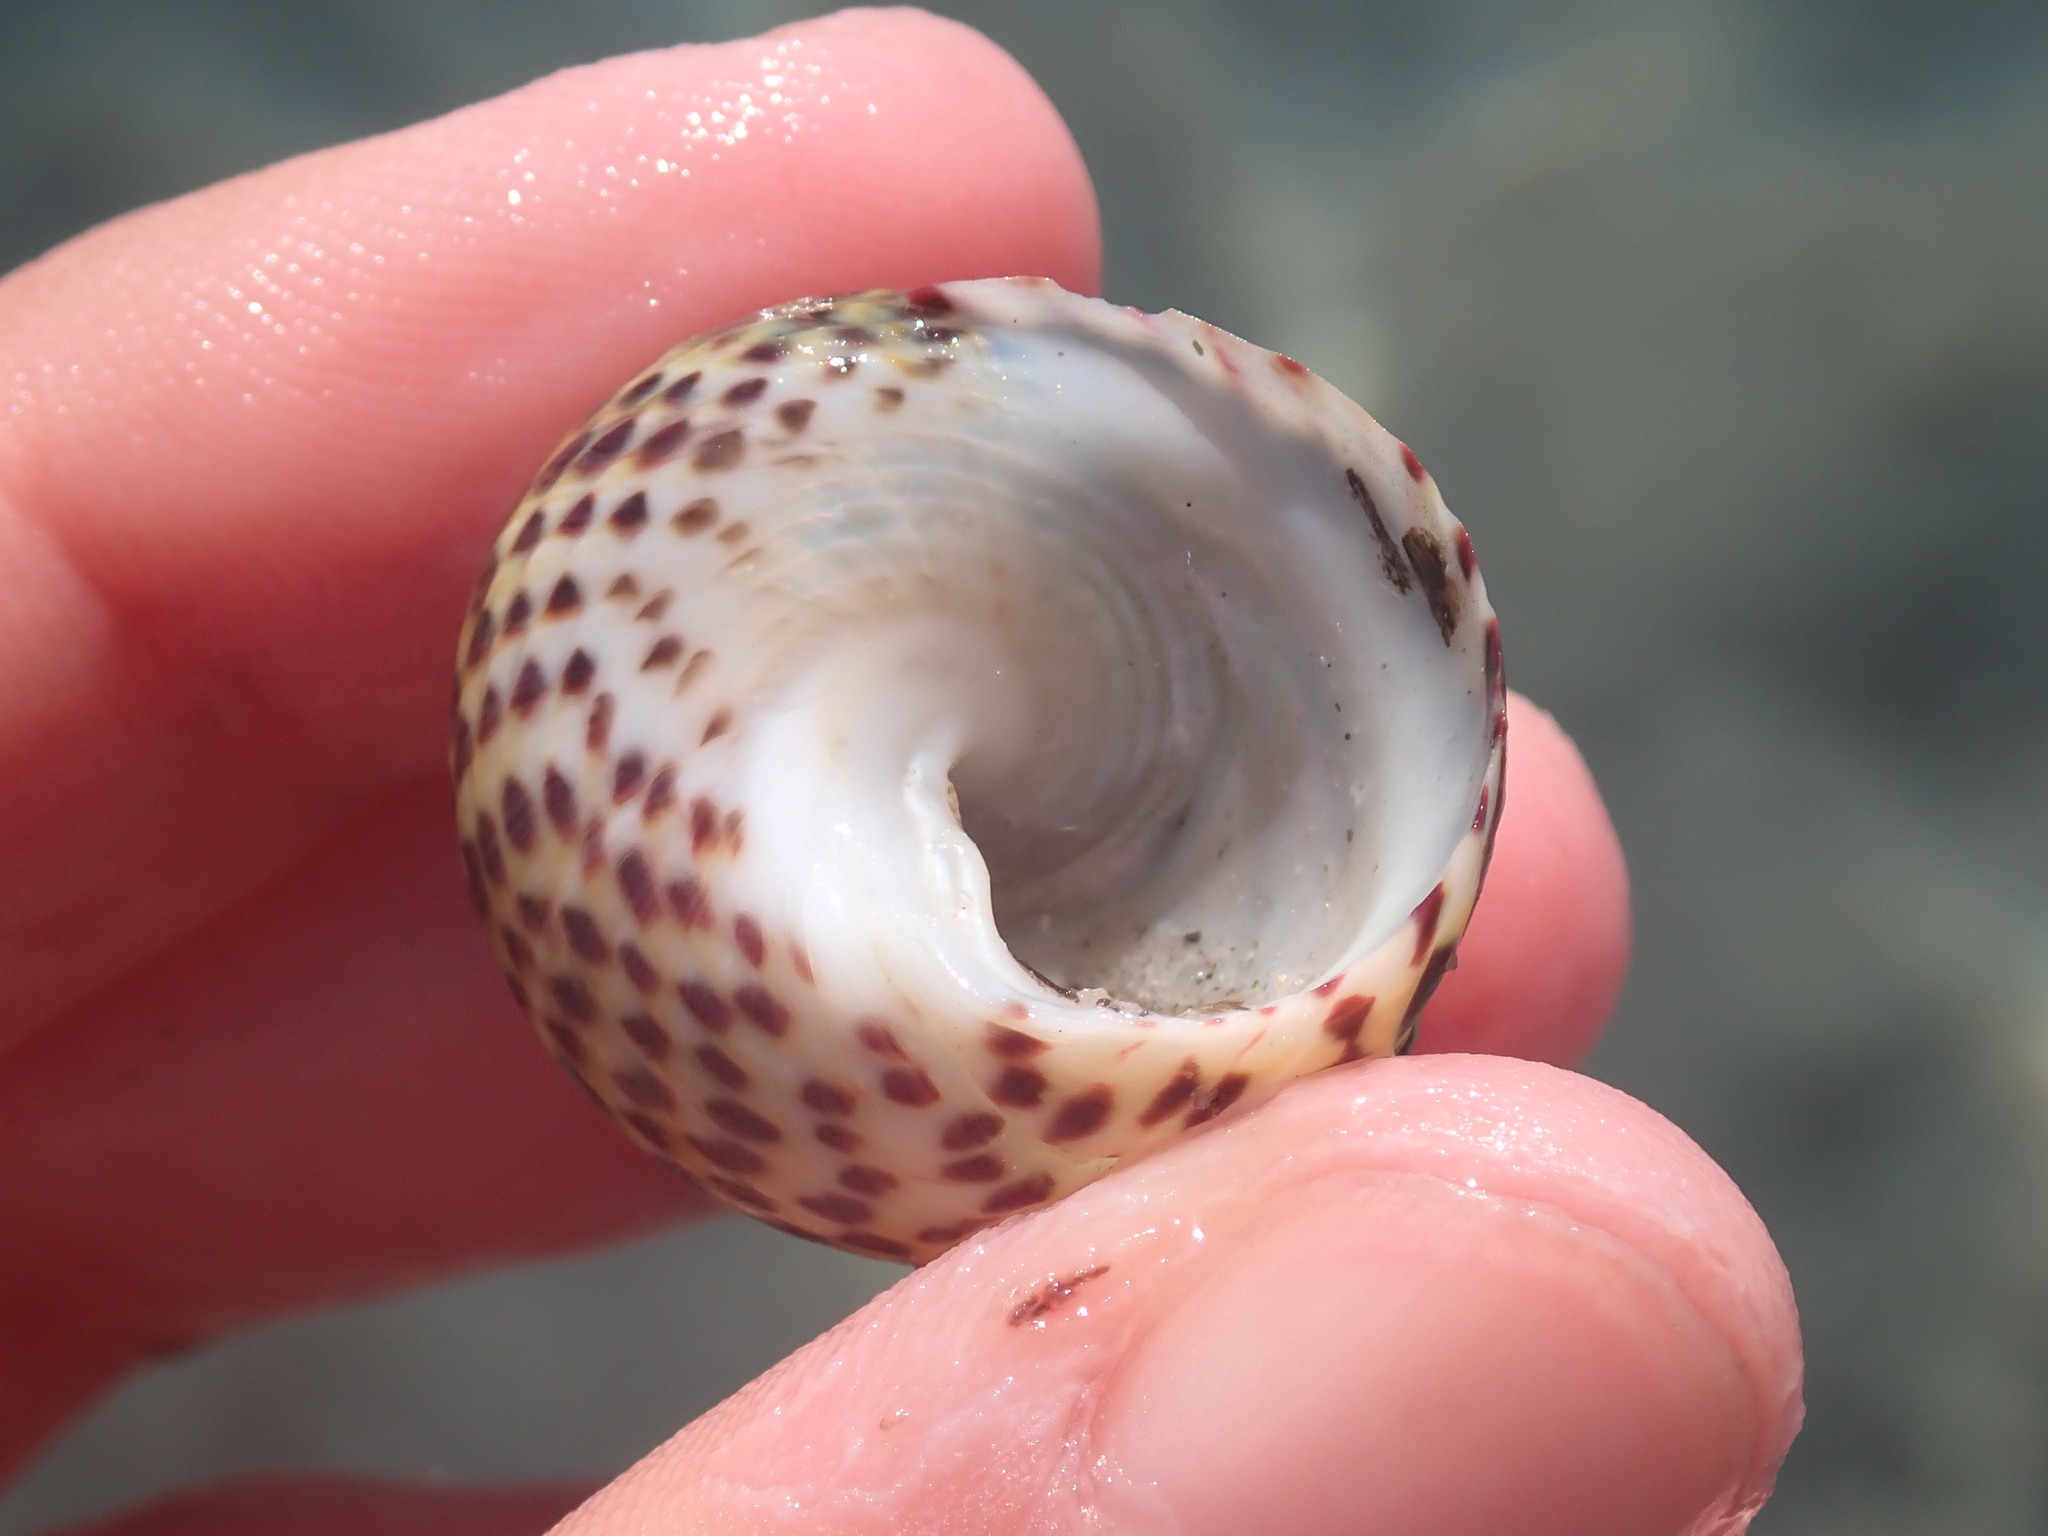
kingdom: Animalia
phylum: Mollusca
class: Gastropoda
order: Trochida
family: Trochidae
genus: Phorcus
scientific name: Phorcus turbinatus
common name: Turbinate monodont
